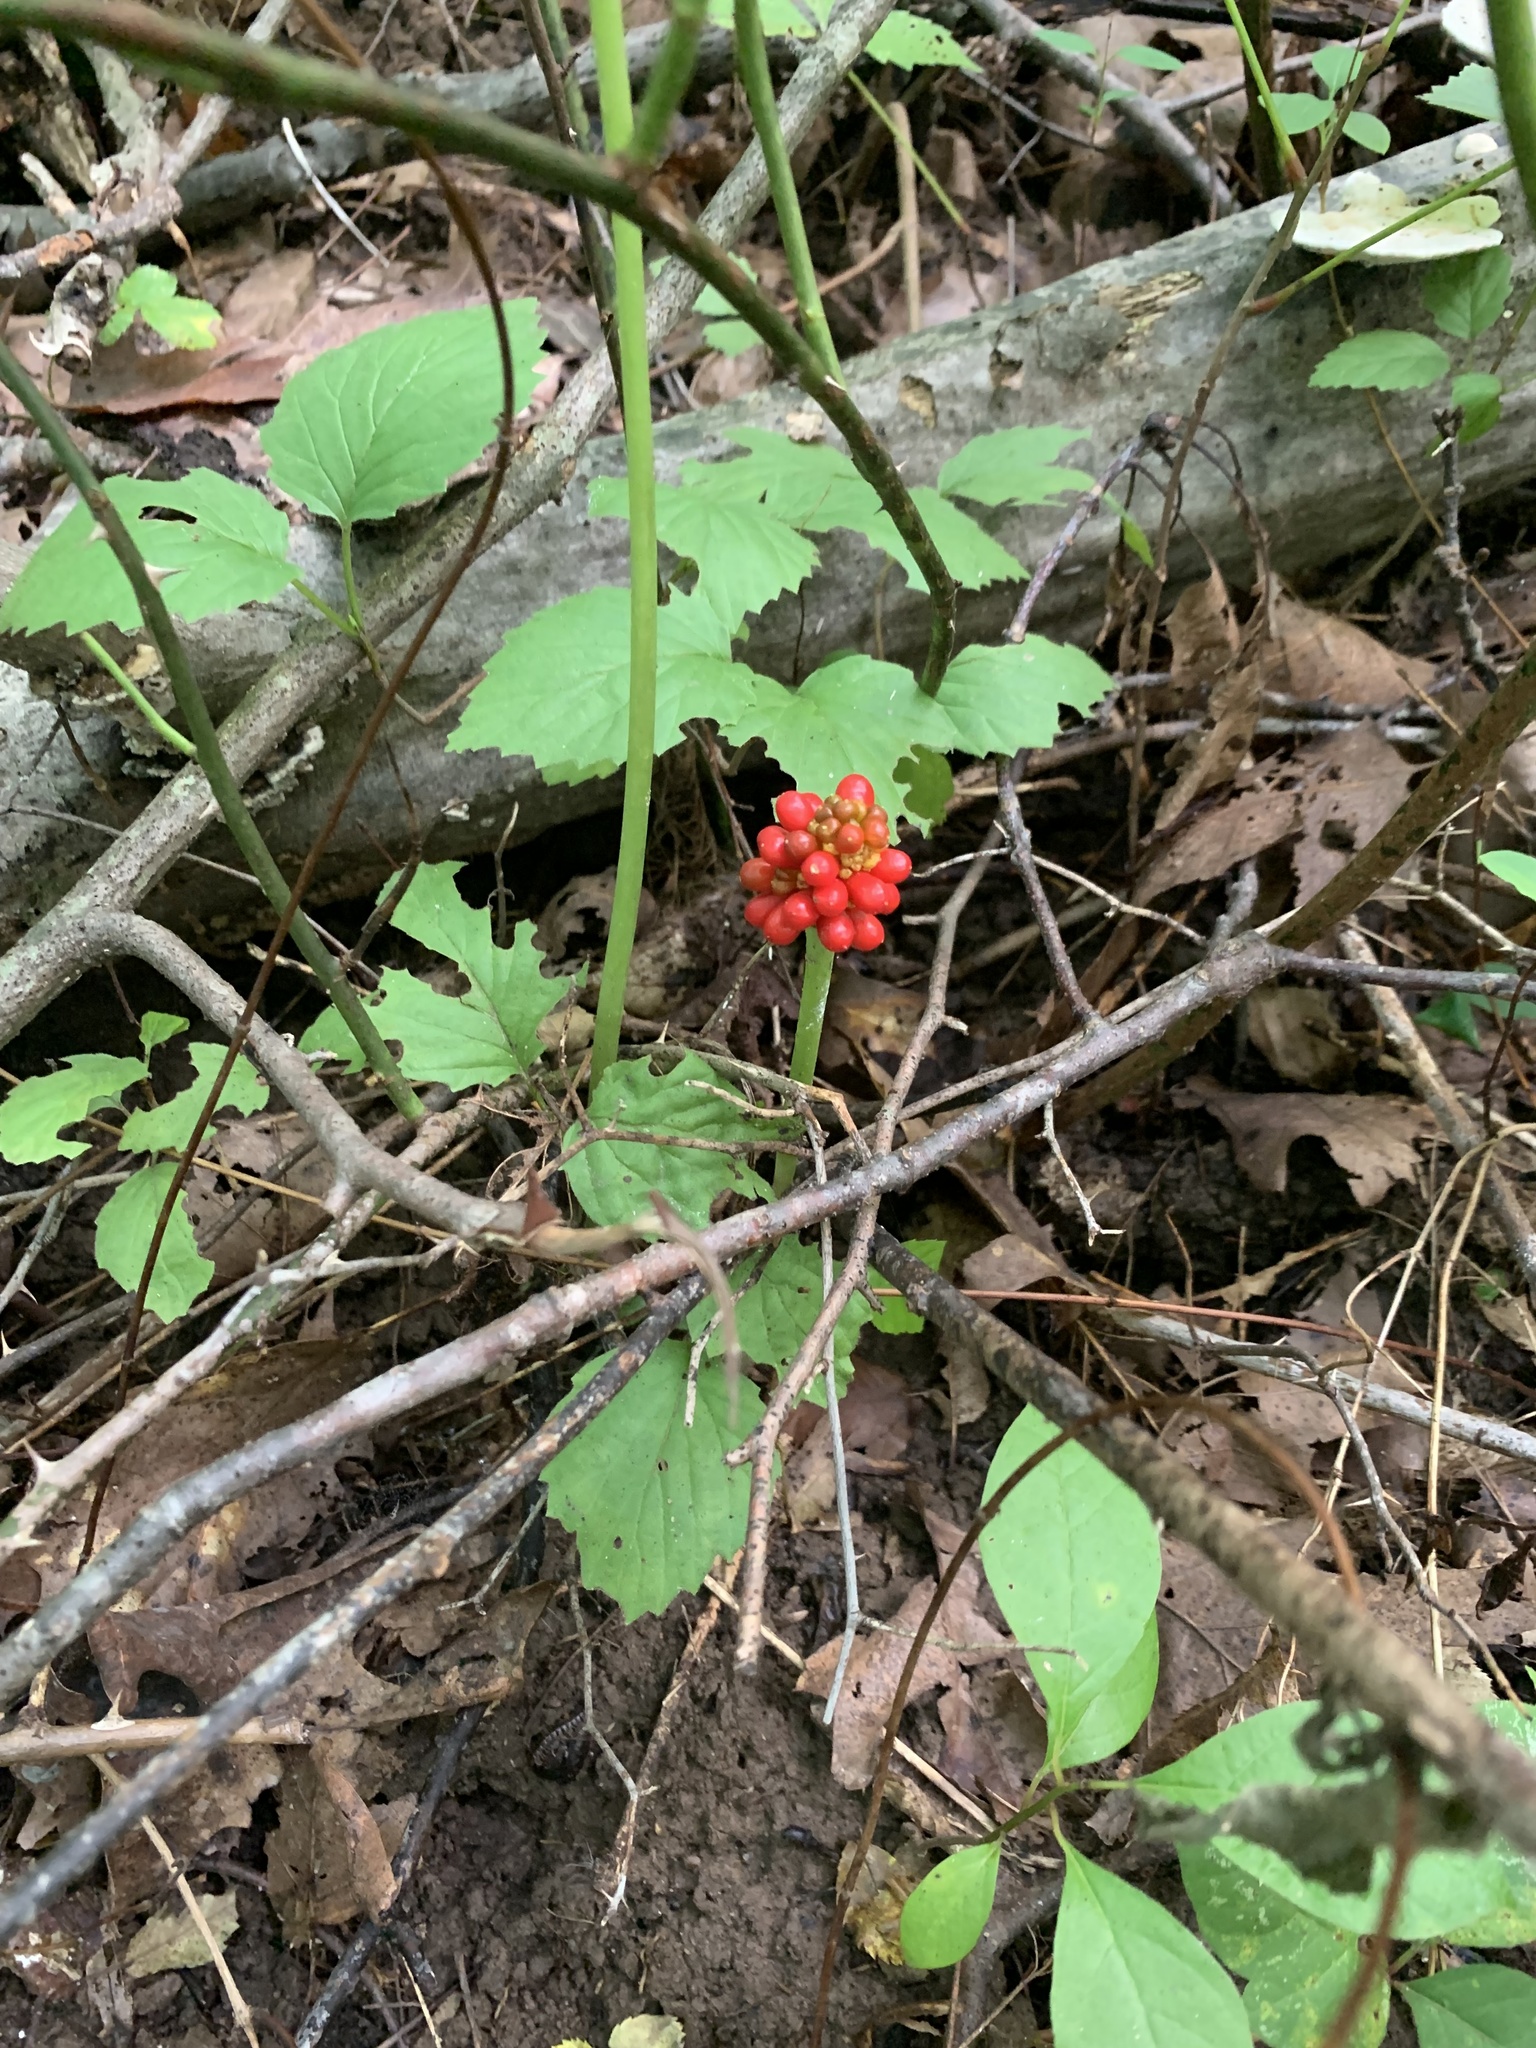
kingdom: Plantae
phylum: Tracheophyta
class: Liliopsida
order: Alismatales
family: Araceae
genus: Arisaema
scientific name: Arisaema triphyllum
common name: Jack-in-the-pulpit
